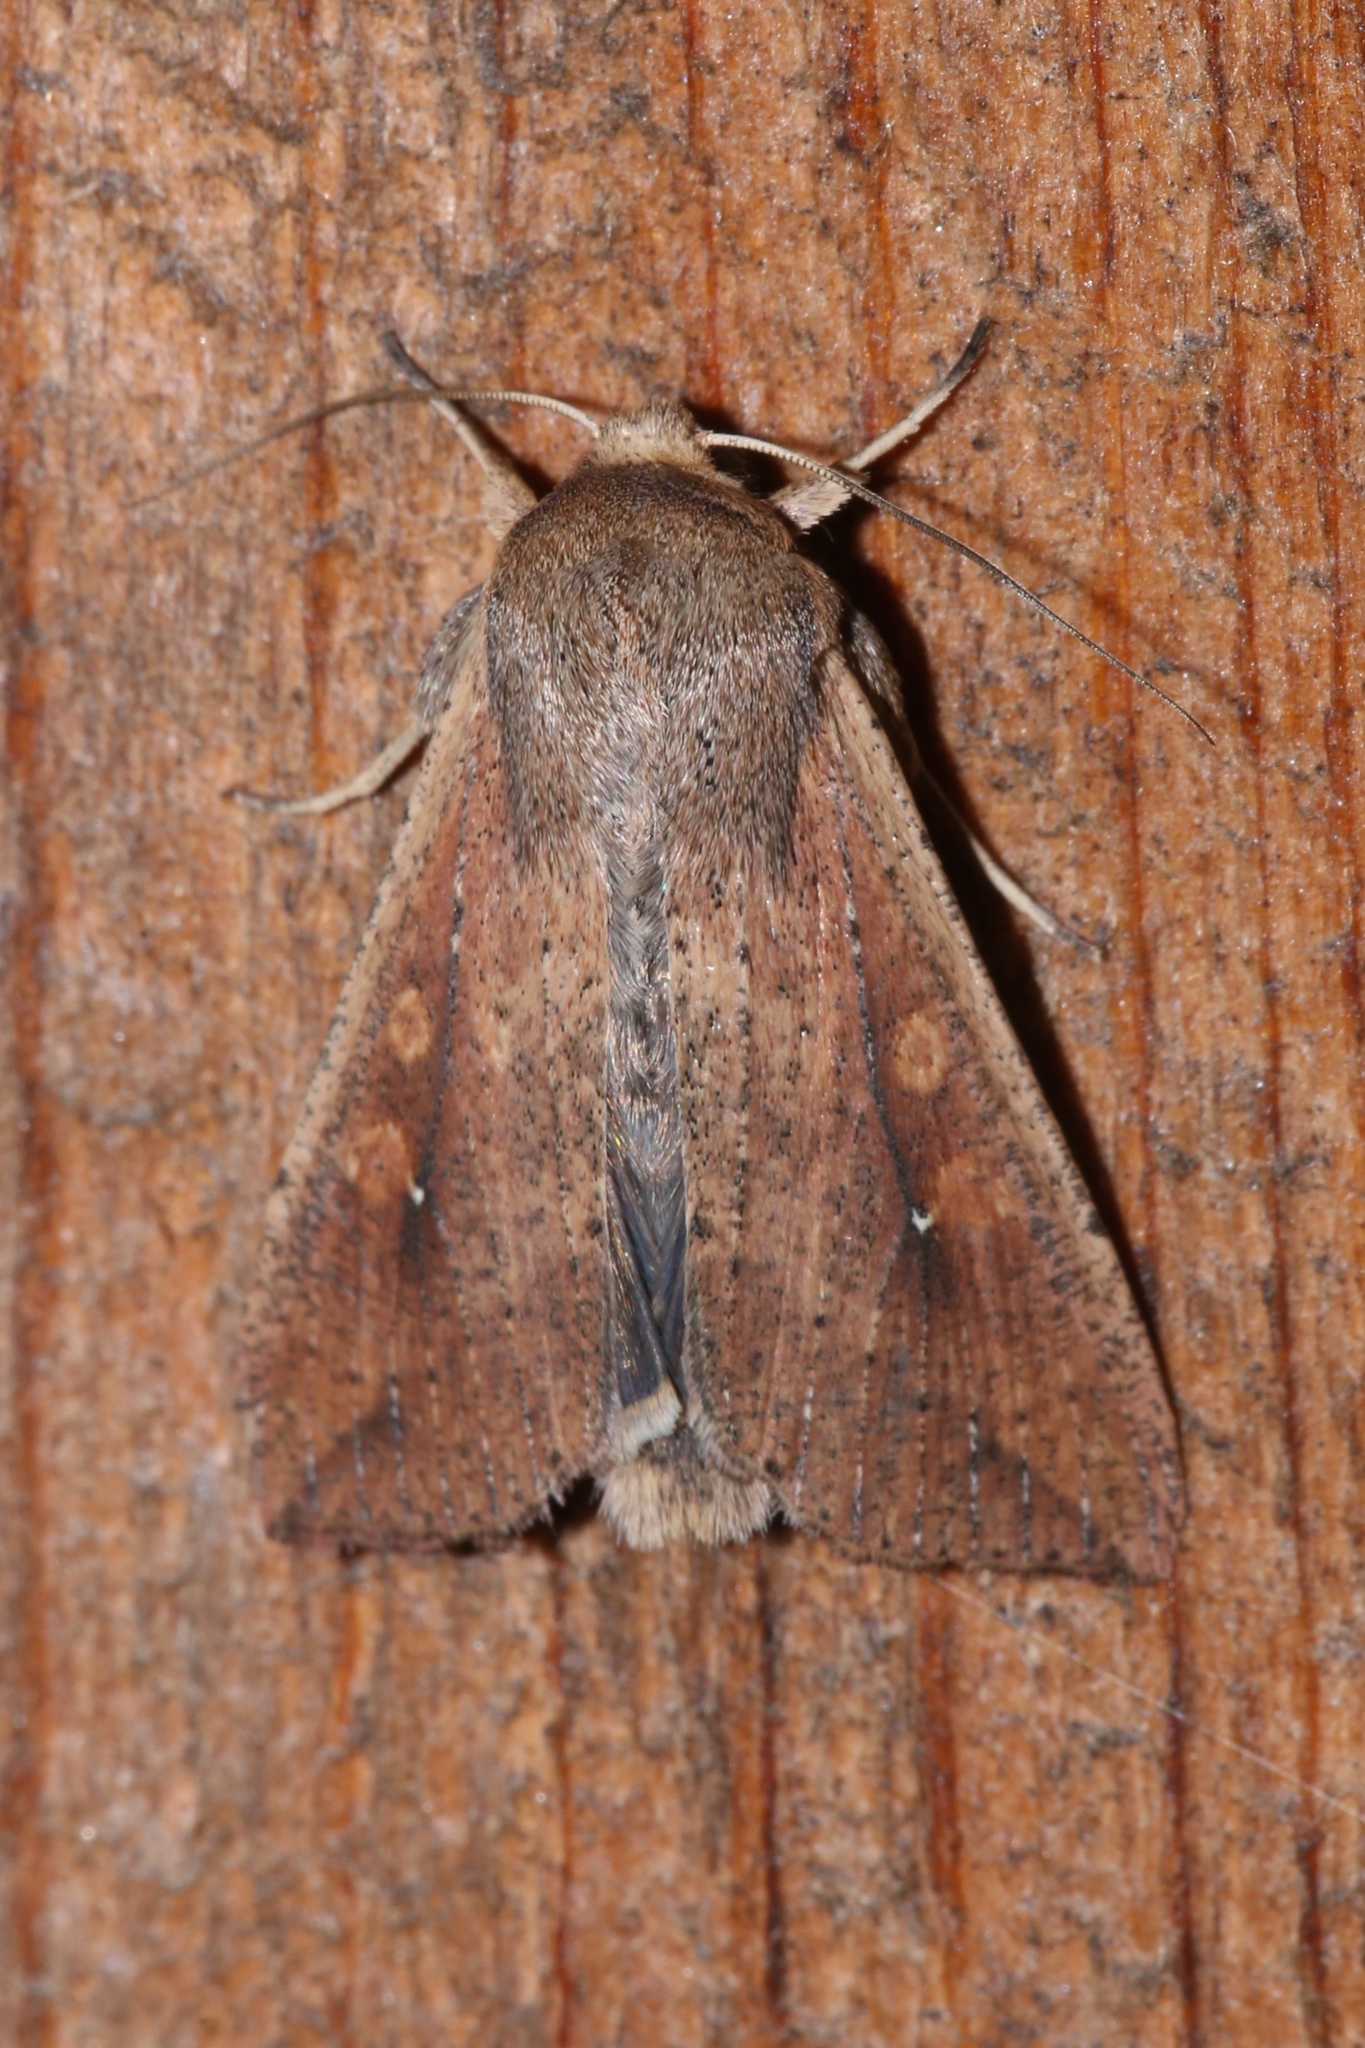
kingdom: Animalia
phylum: Arthropoda
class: Insecta
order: Lepidoptera
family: Noctuidae
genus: Mythimna
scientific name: Mythimna unipuncta
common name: White-speck
